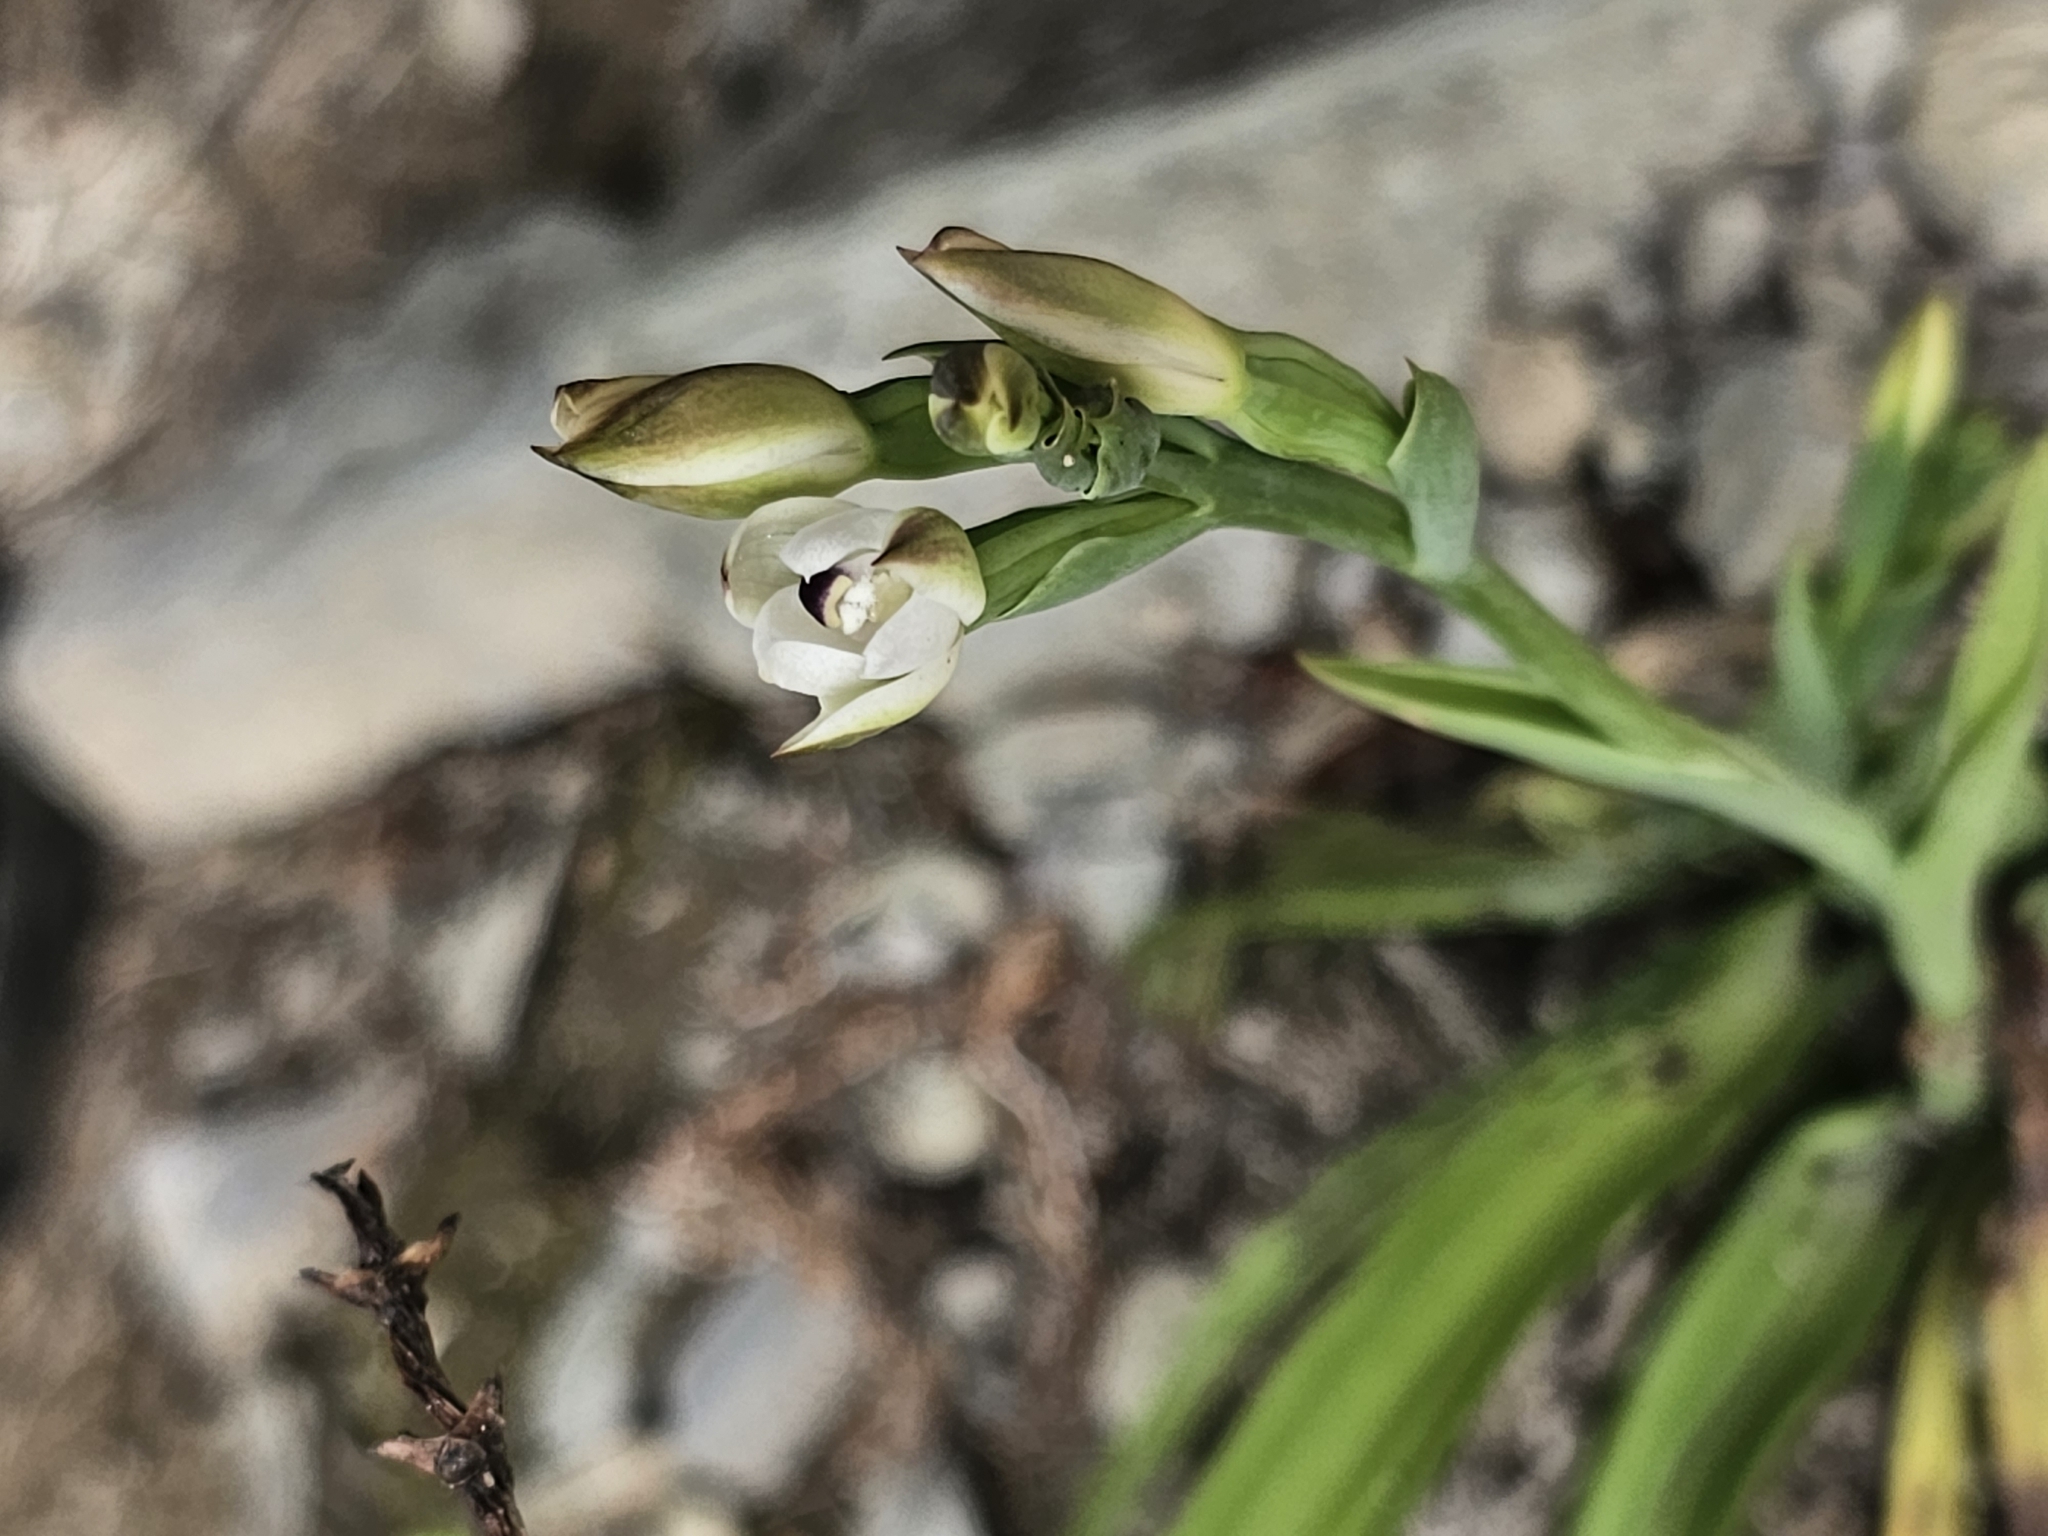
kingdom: Plantae
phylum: Tracheophyta
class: Liliopsida
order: Asparagales
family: Orchidaceae
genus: Thelymitra
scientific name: Thelymitra longifolia
